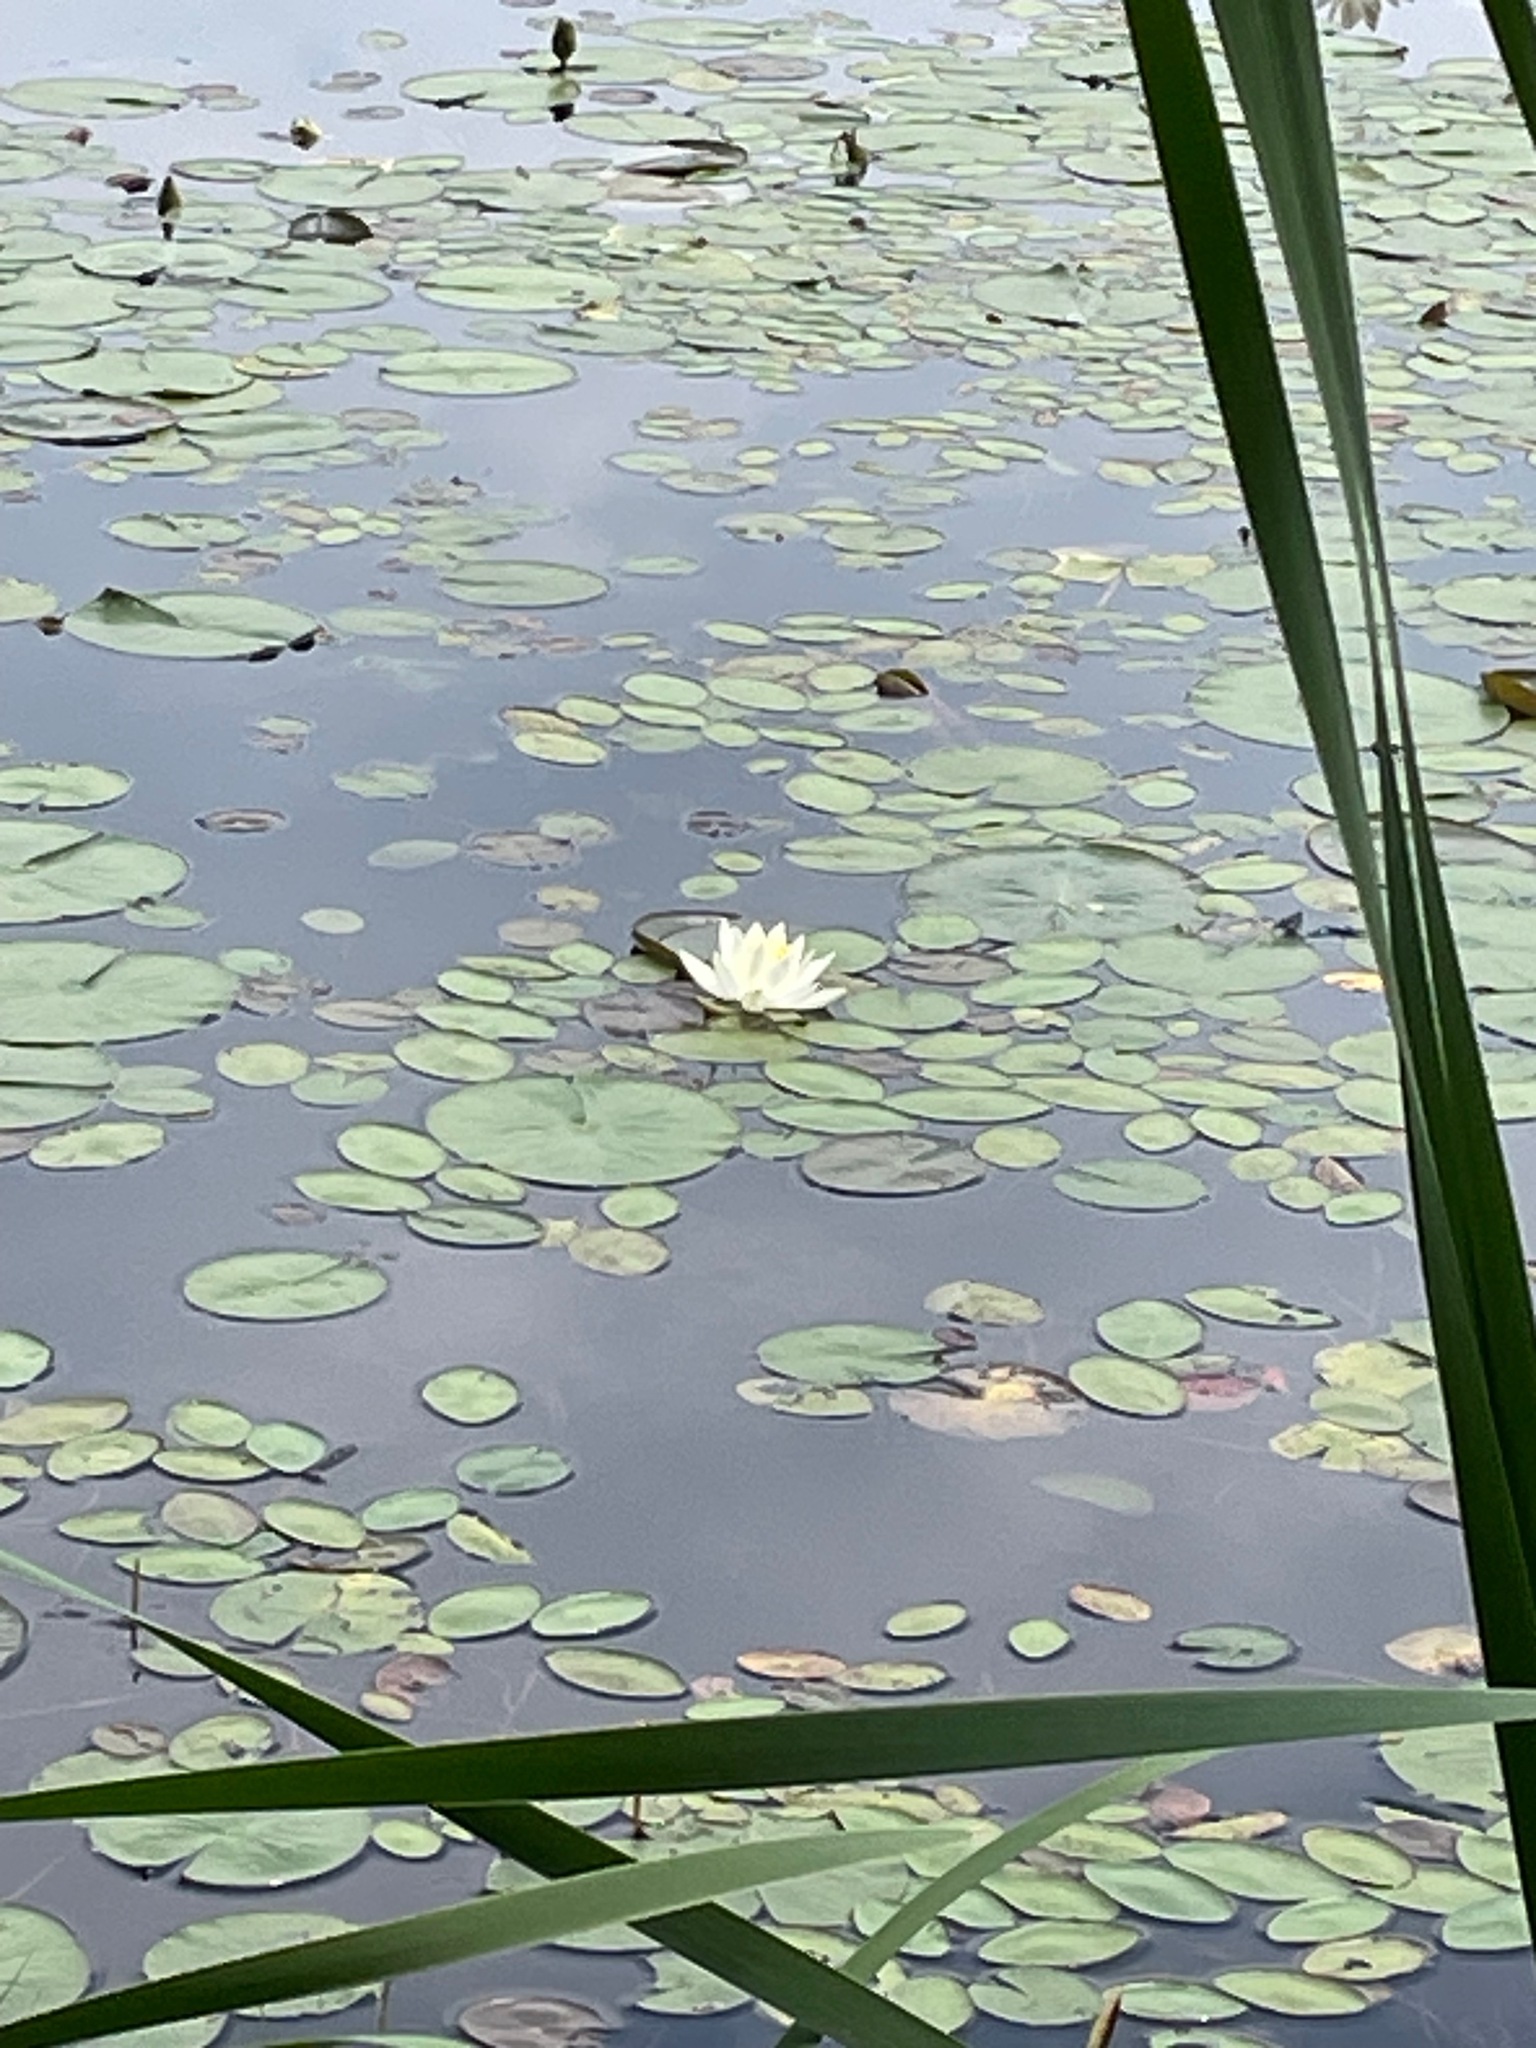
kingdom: Plantae
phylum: Tracheophyta
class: Magnoliopsida
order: Nymphaeales
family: Nymphaeaceae
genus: Nymphaea
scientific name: Nymphaea odorata
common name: Fragrant water-lily
